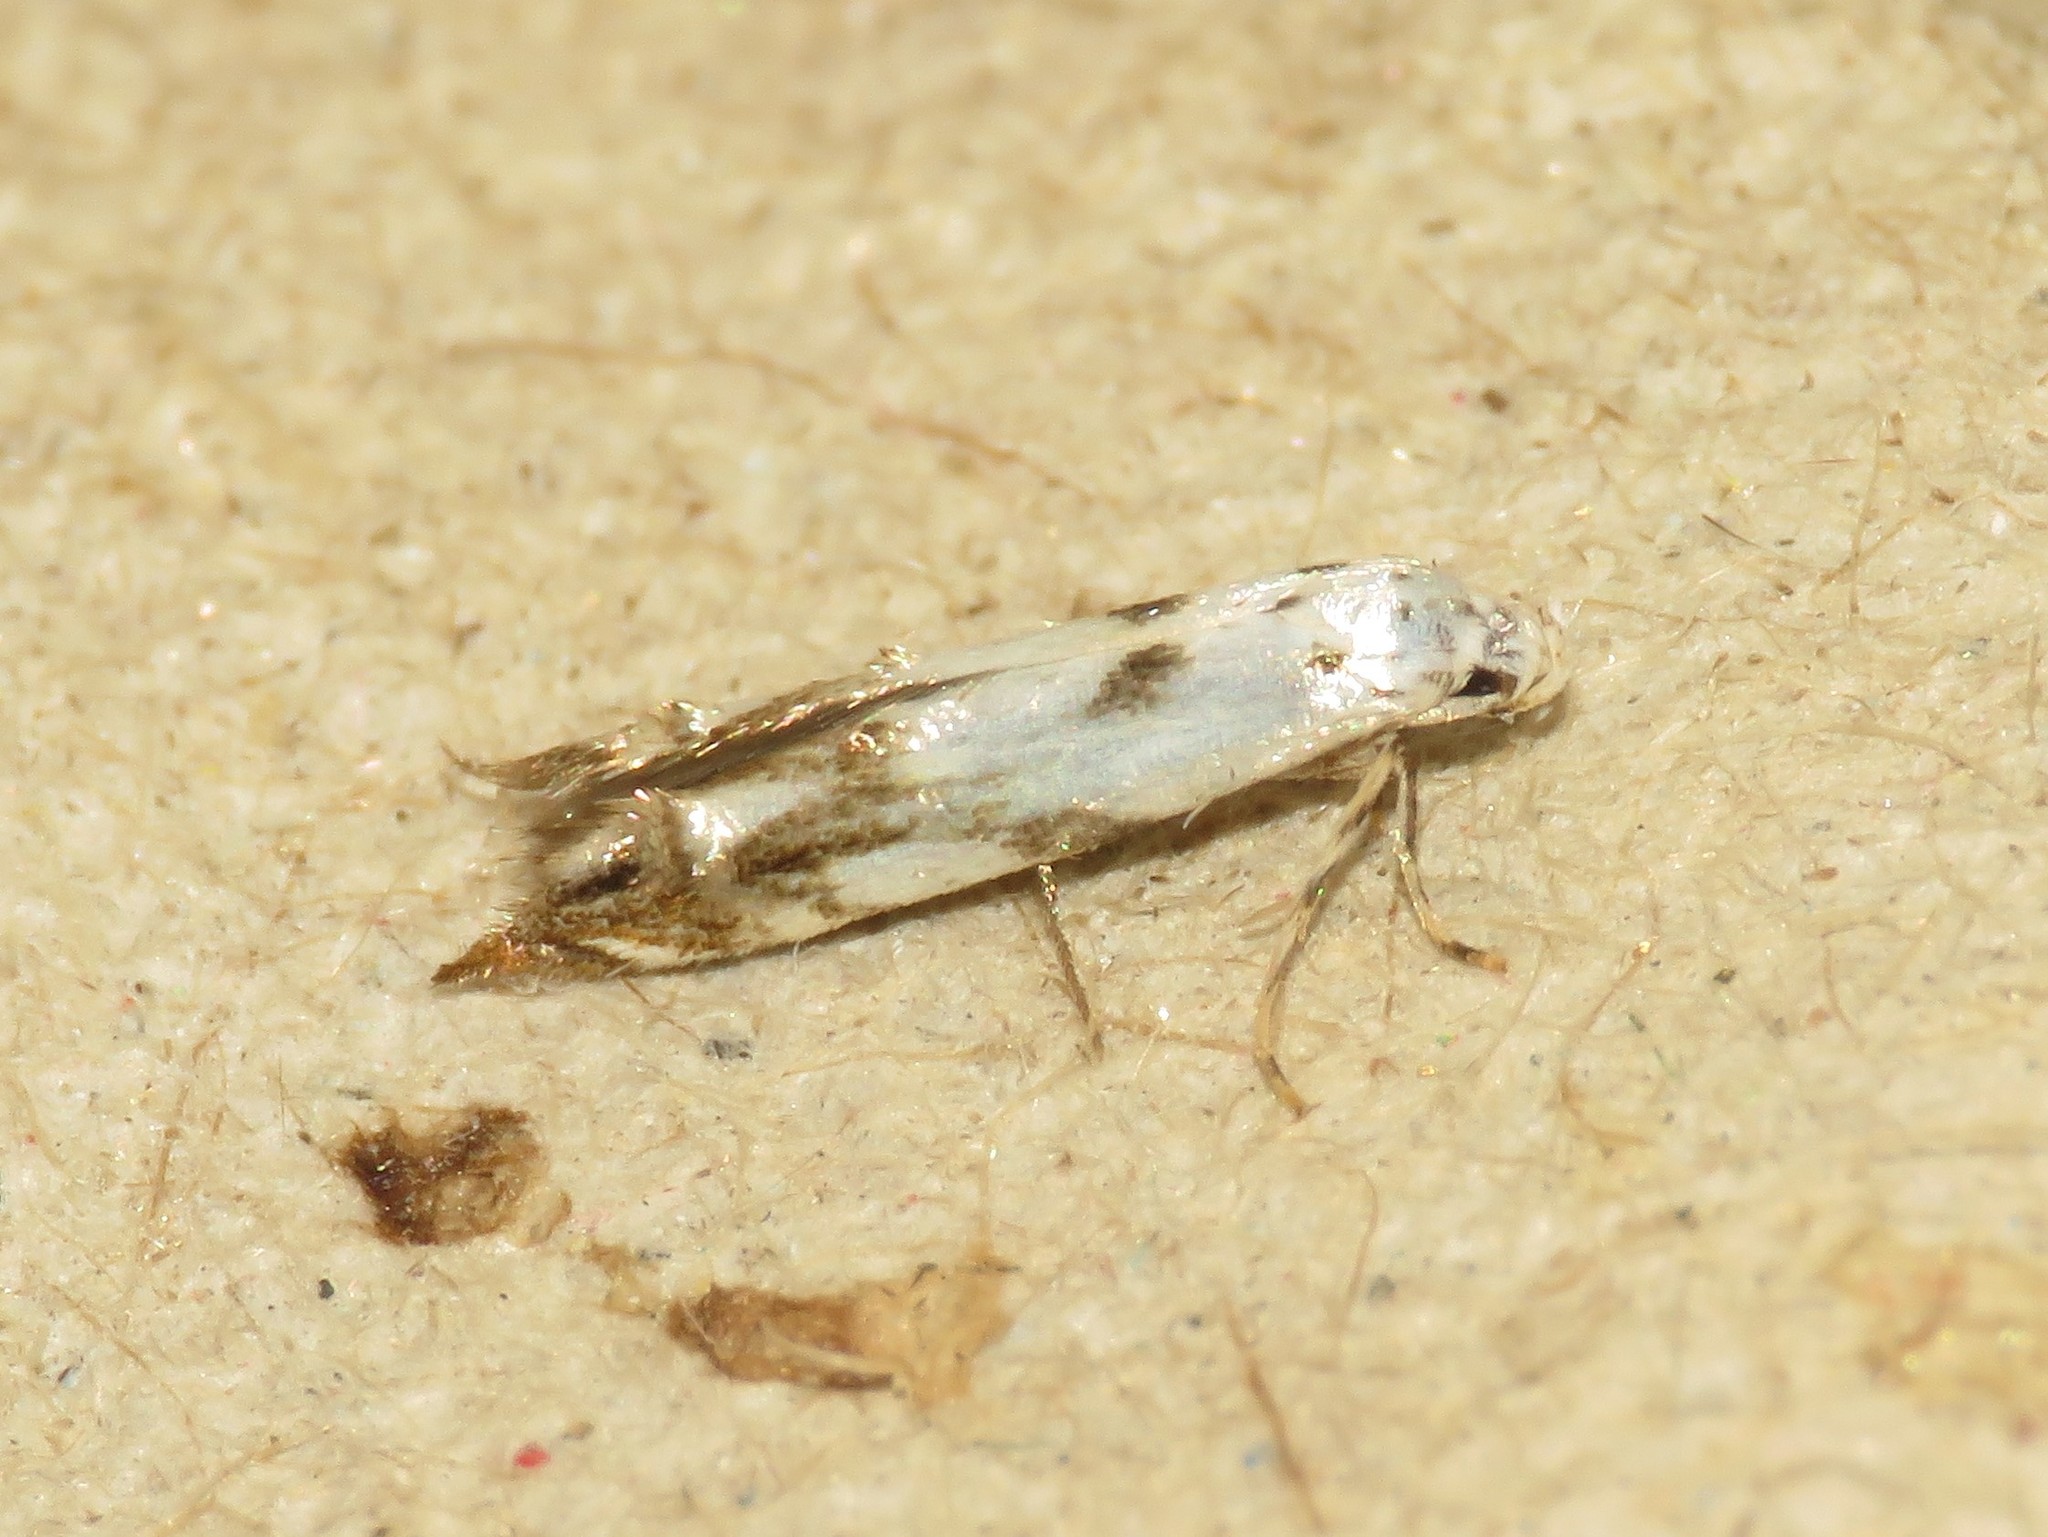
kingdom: Animalia
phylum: Arthropoda
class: Insecta
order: Lepidoptera
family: Momphidae
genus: Mompha
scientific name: Mompha eloisella
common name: Red-streaked mompha moth
